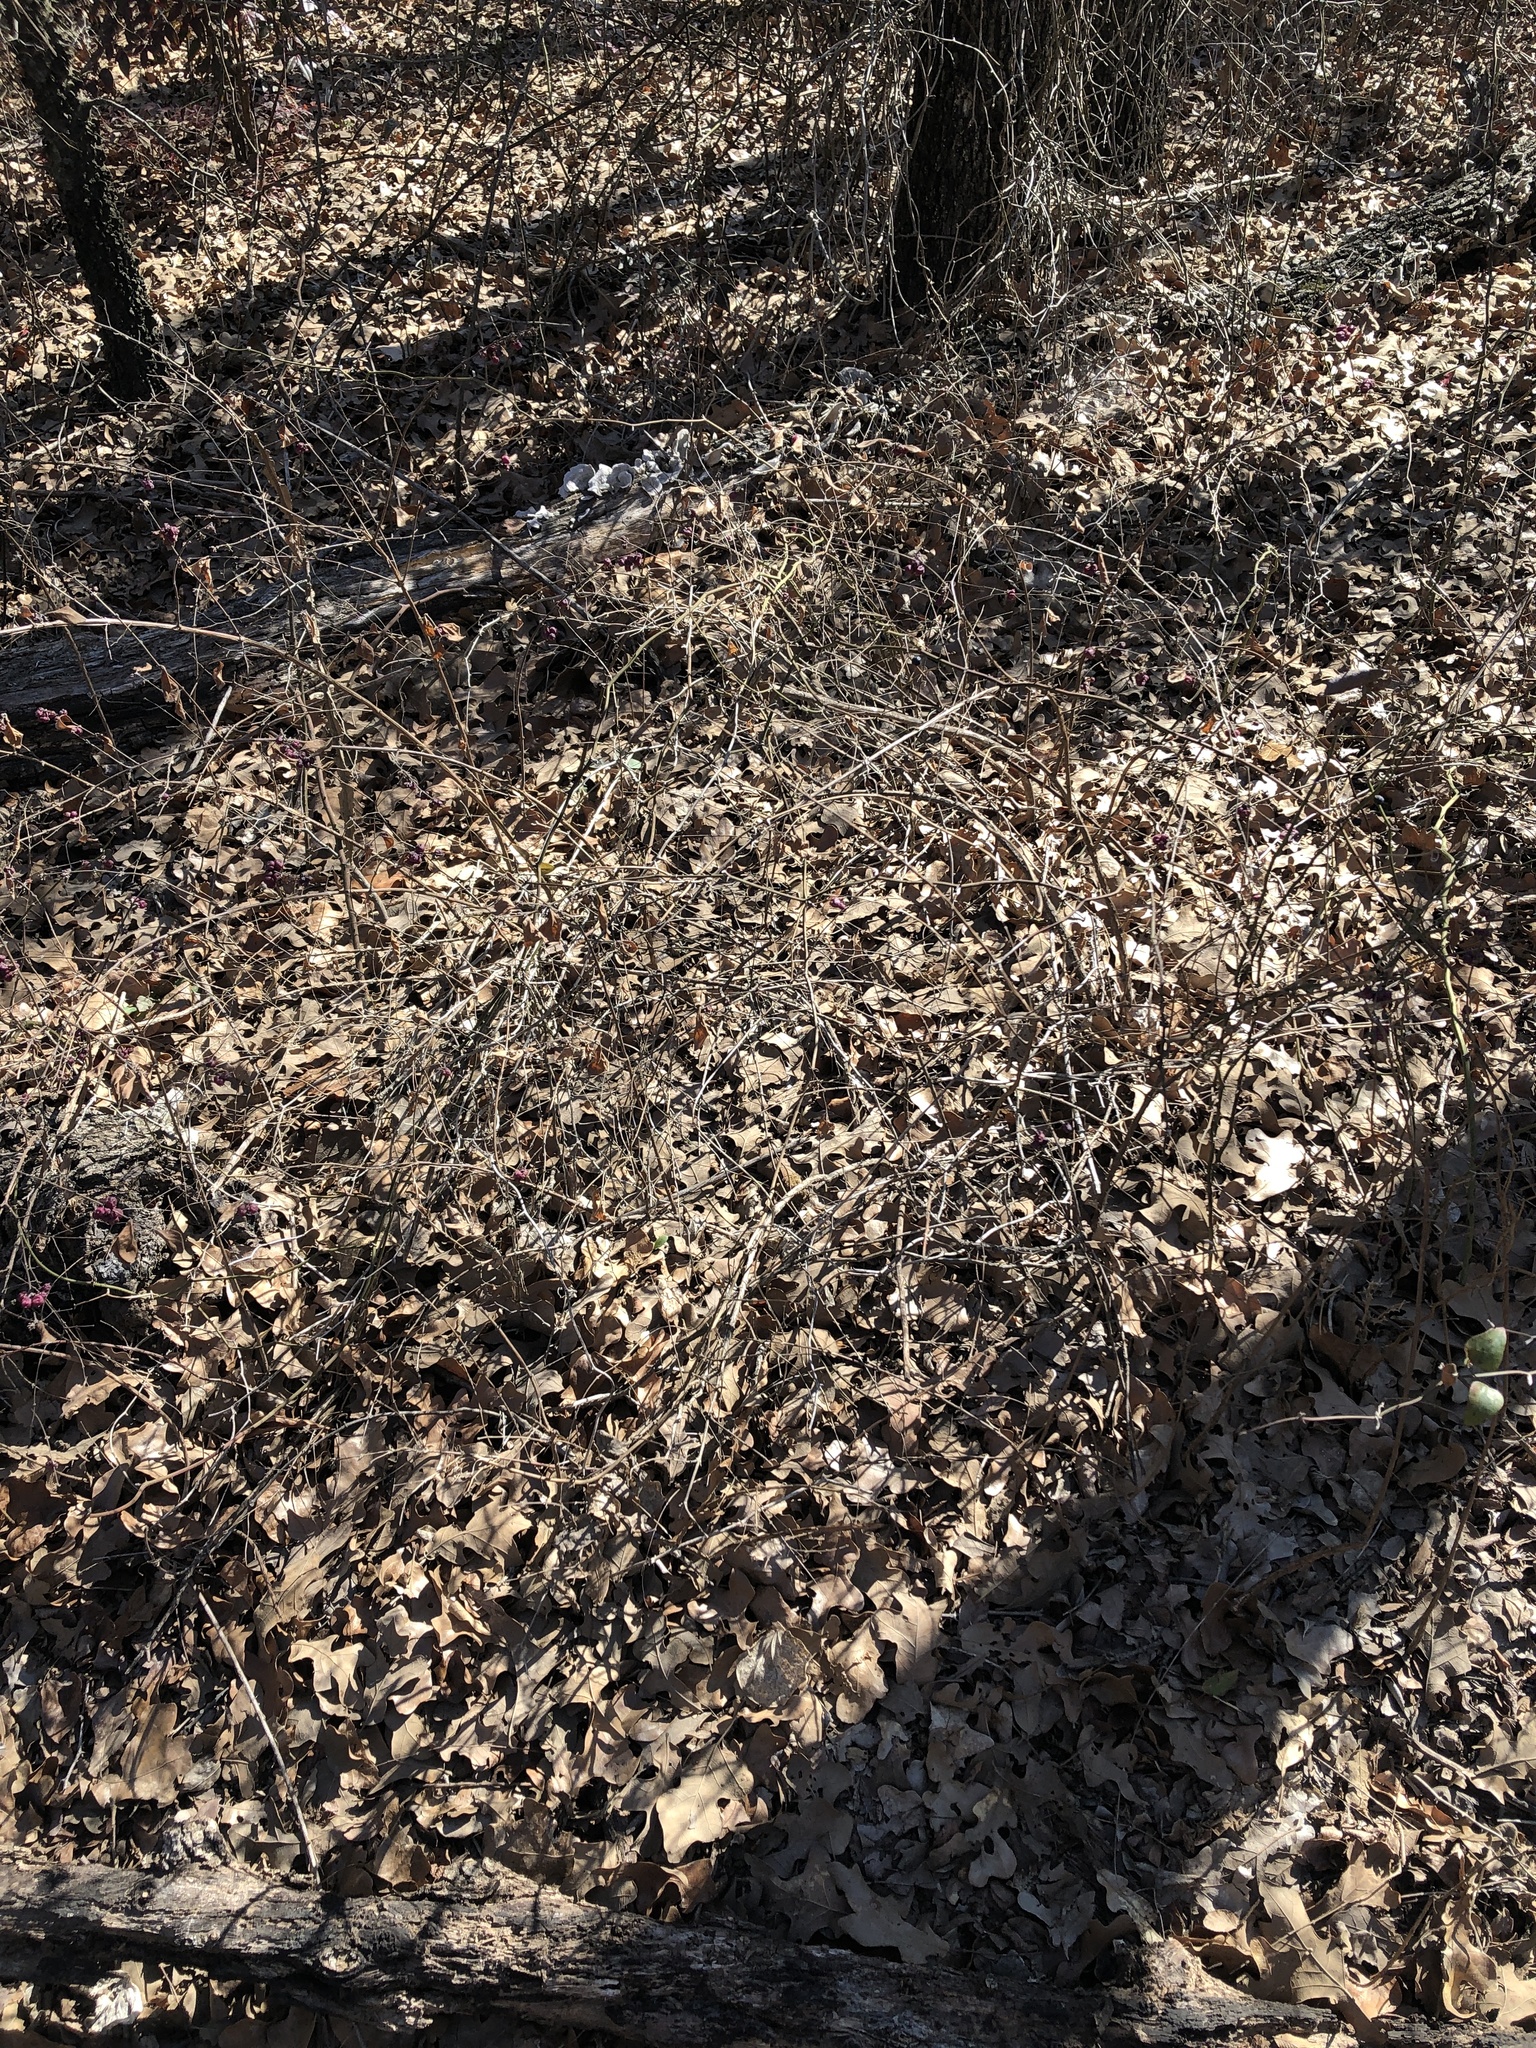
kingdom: Plantae
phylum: Tracheophyta
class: Magnoliopsida
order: Dipsacales
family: Caprifoliaceae
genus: Symphoricarpos
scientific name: Symphoricarpos orbiculatus
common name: Coralberry
